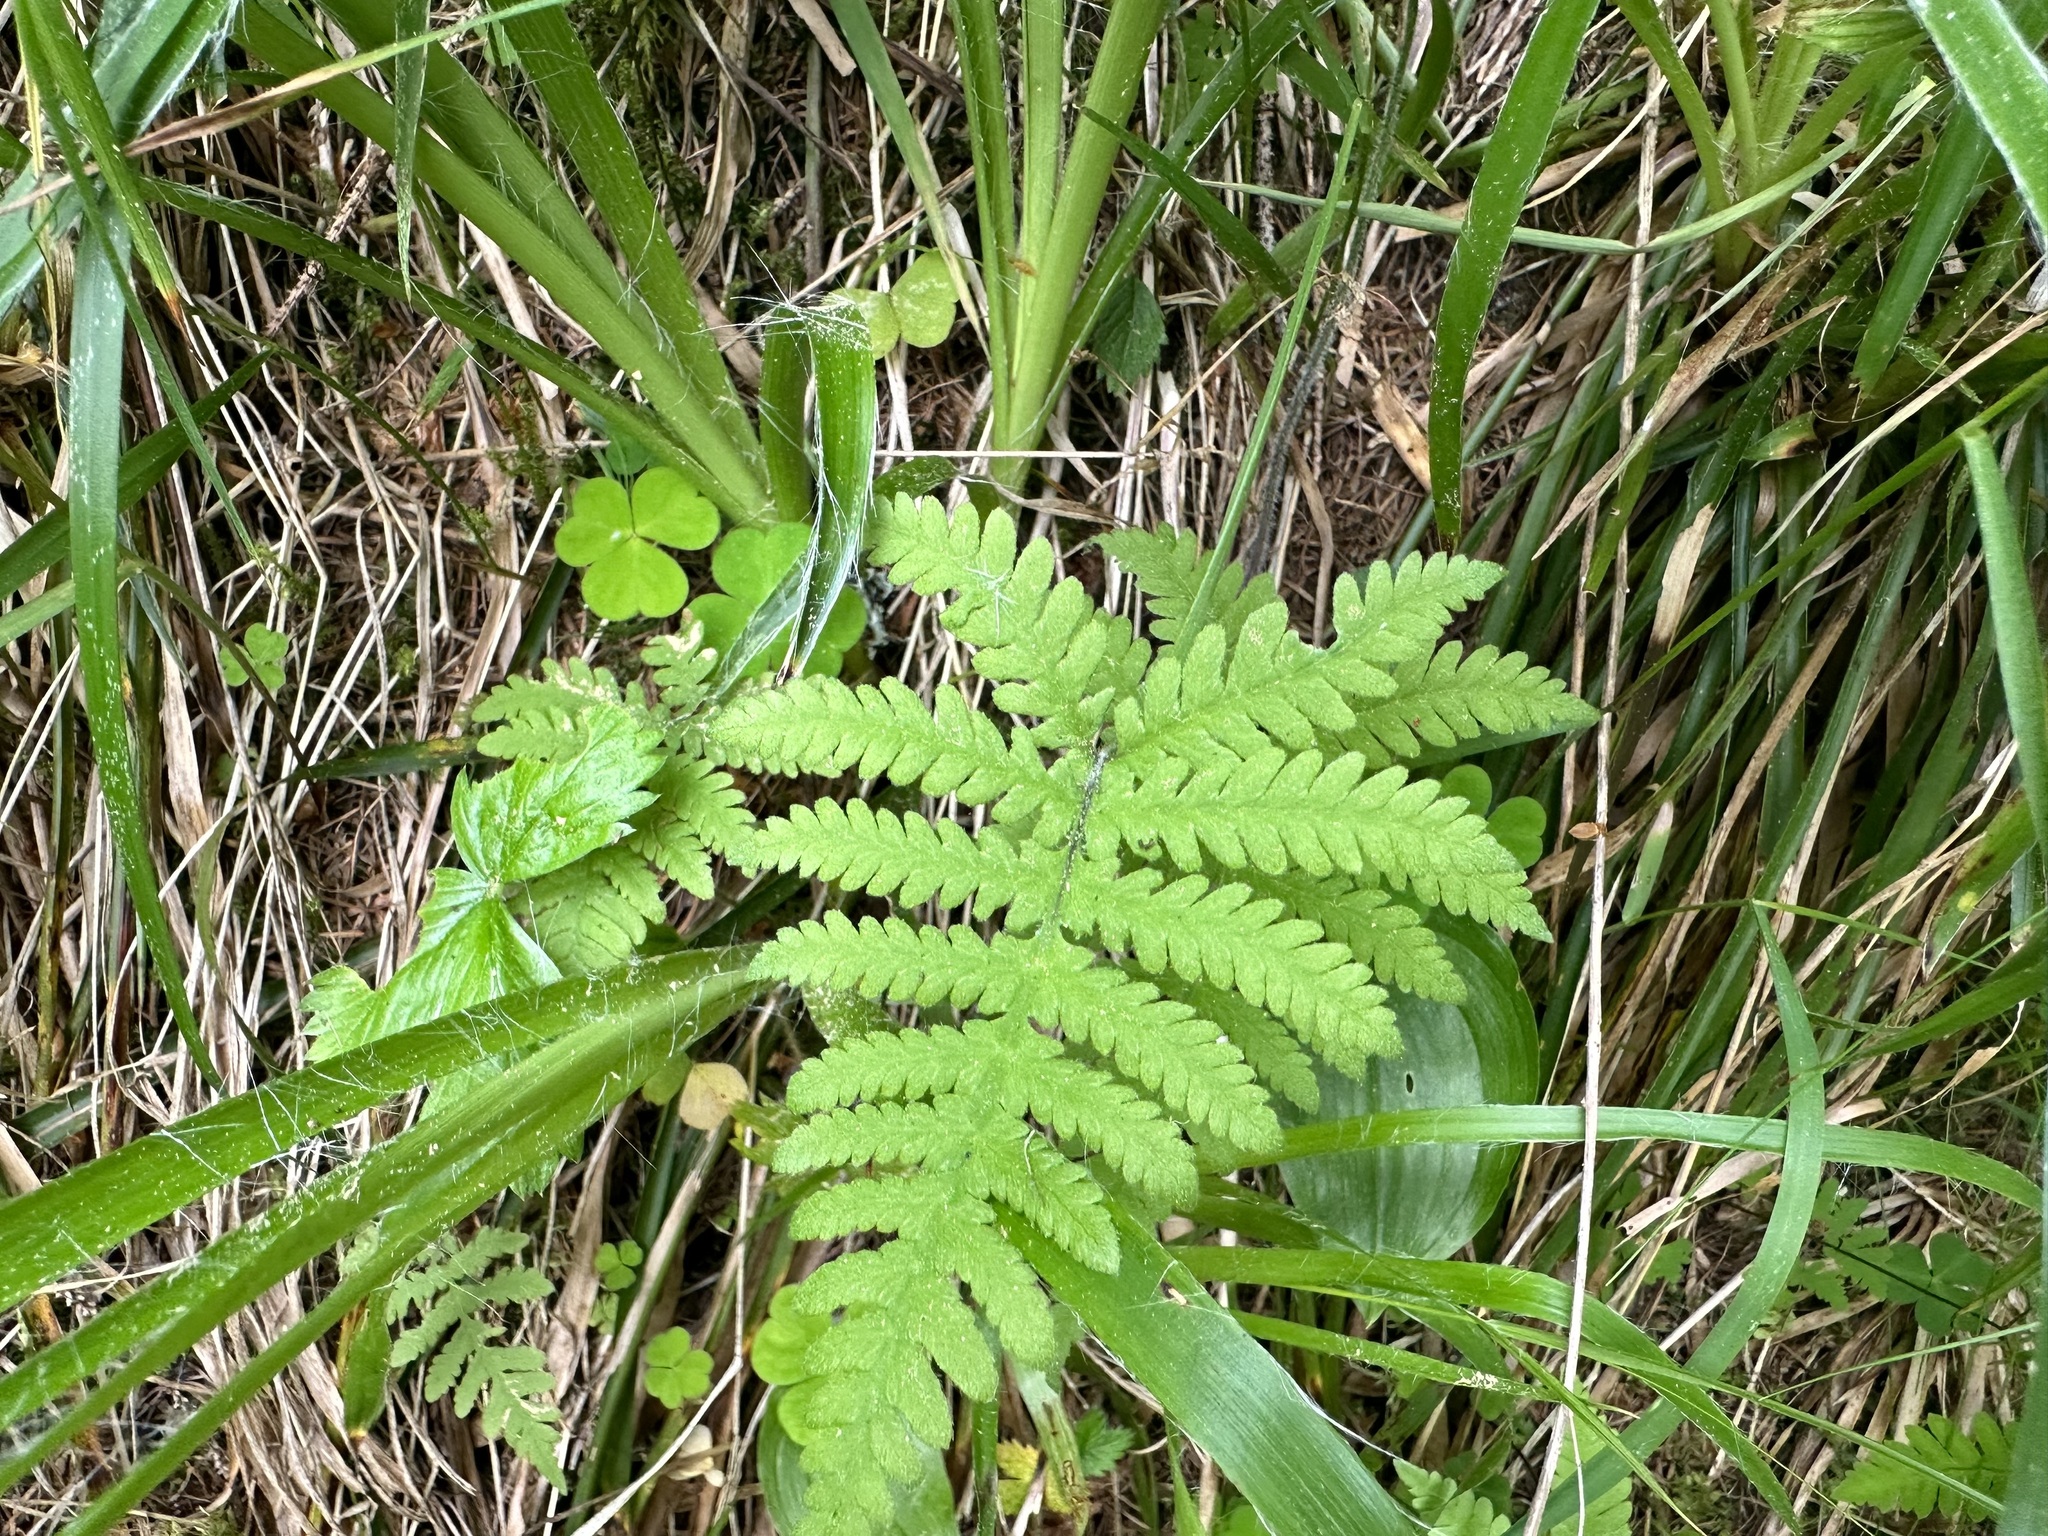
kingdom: Plantae
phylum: Tracheophyta
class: Polypodiopsida
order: Polypodiales
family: Thelypteridaceae
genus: Phegopteris
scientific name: Phegopteris connectilis
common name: Beech fern
